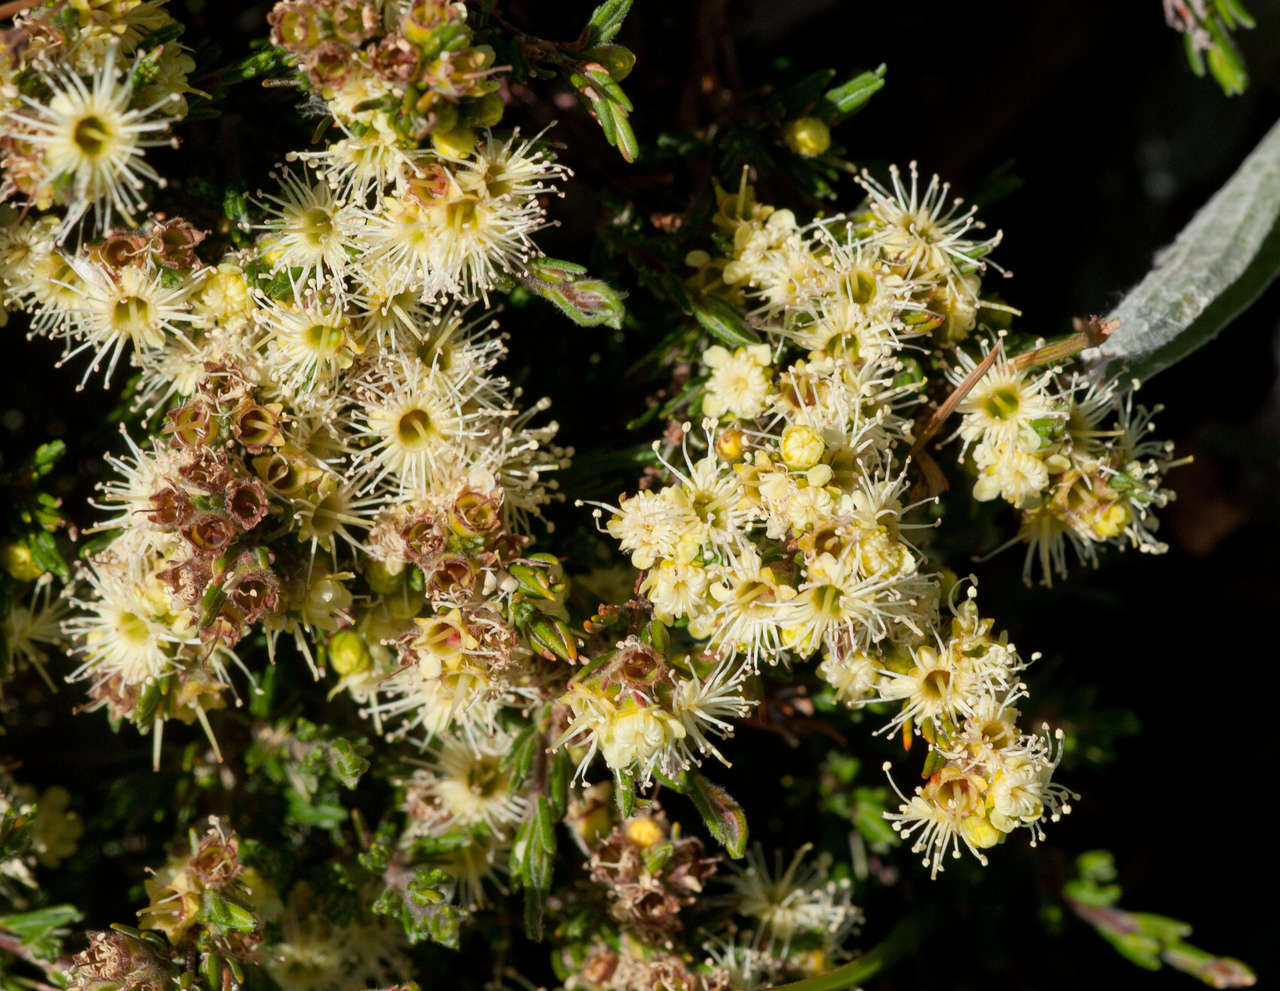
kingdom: Plantae
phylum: Tracheophyta
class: Magnoliopsida
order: Myrtales
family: Myrtaceae
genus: Kunzea
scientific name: Kunzea muelleri
